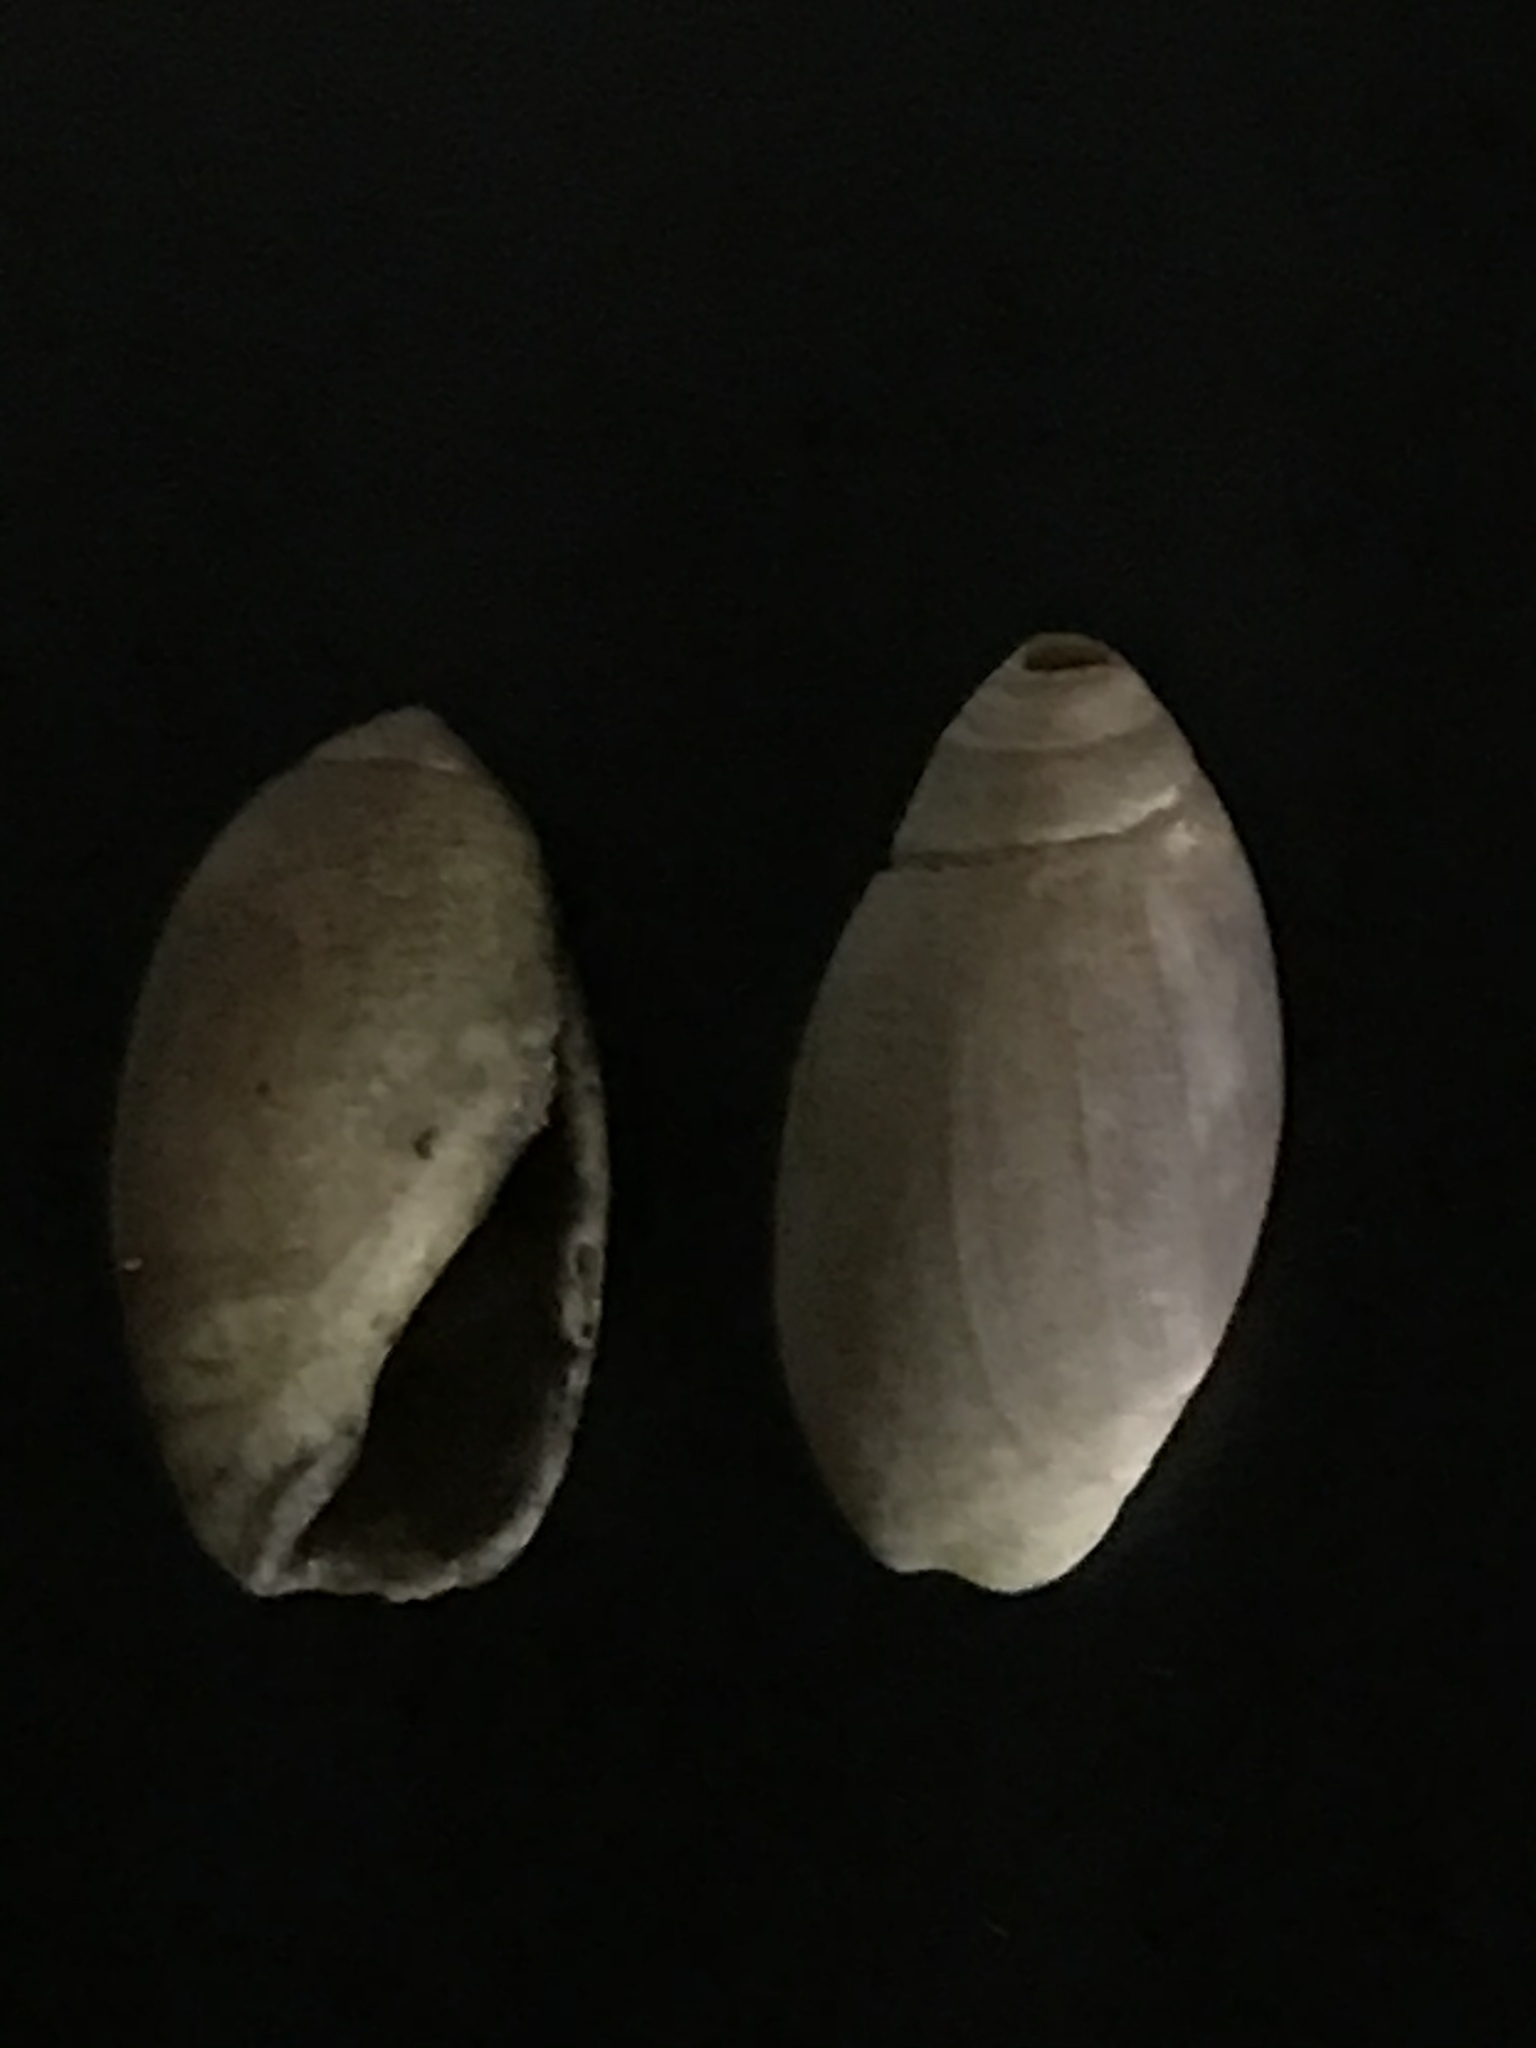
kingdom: Animalia
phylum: Mollusca
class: Gastropoda
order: Neogastropoda
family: Olividae
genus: Callianax
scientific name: Callianax biplicata
